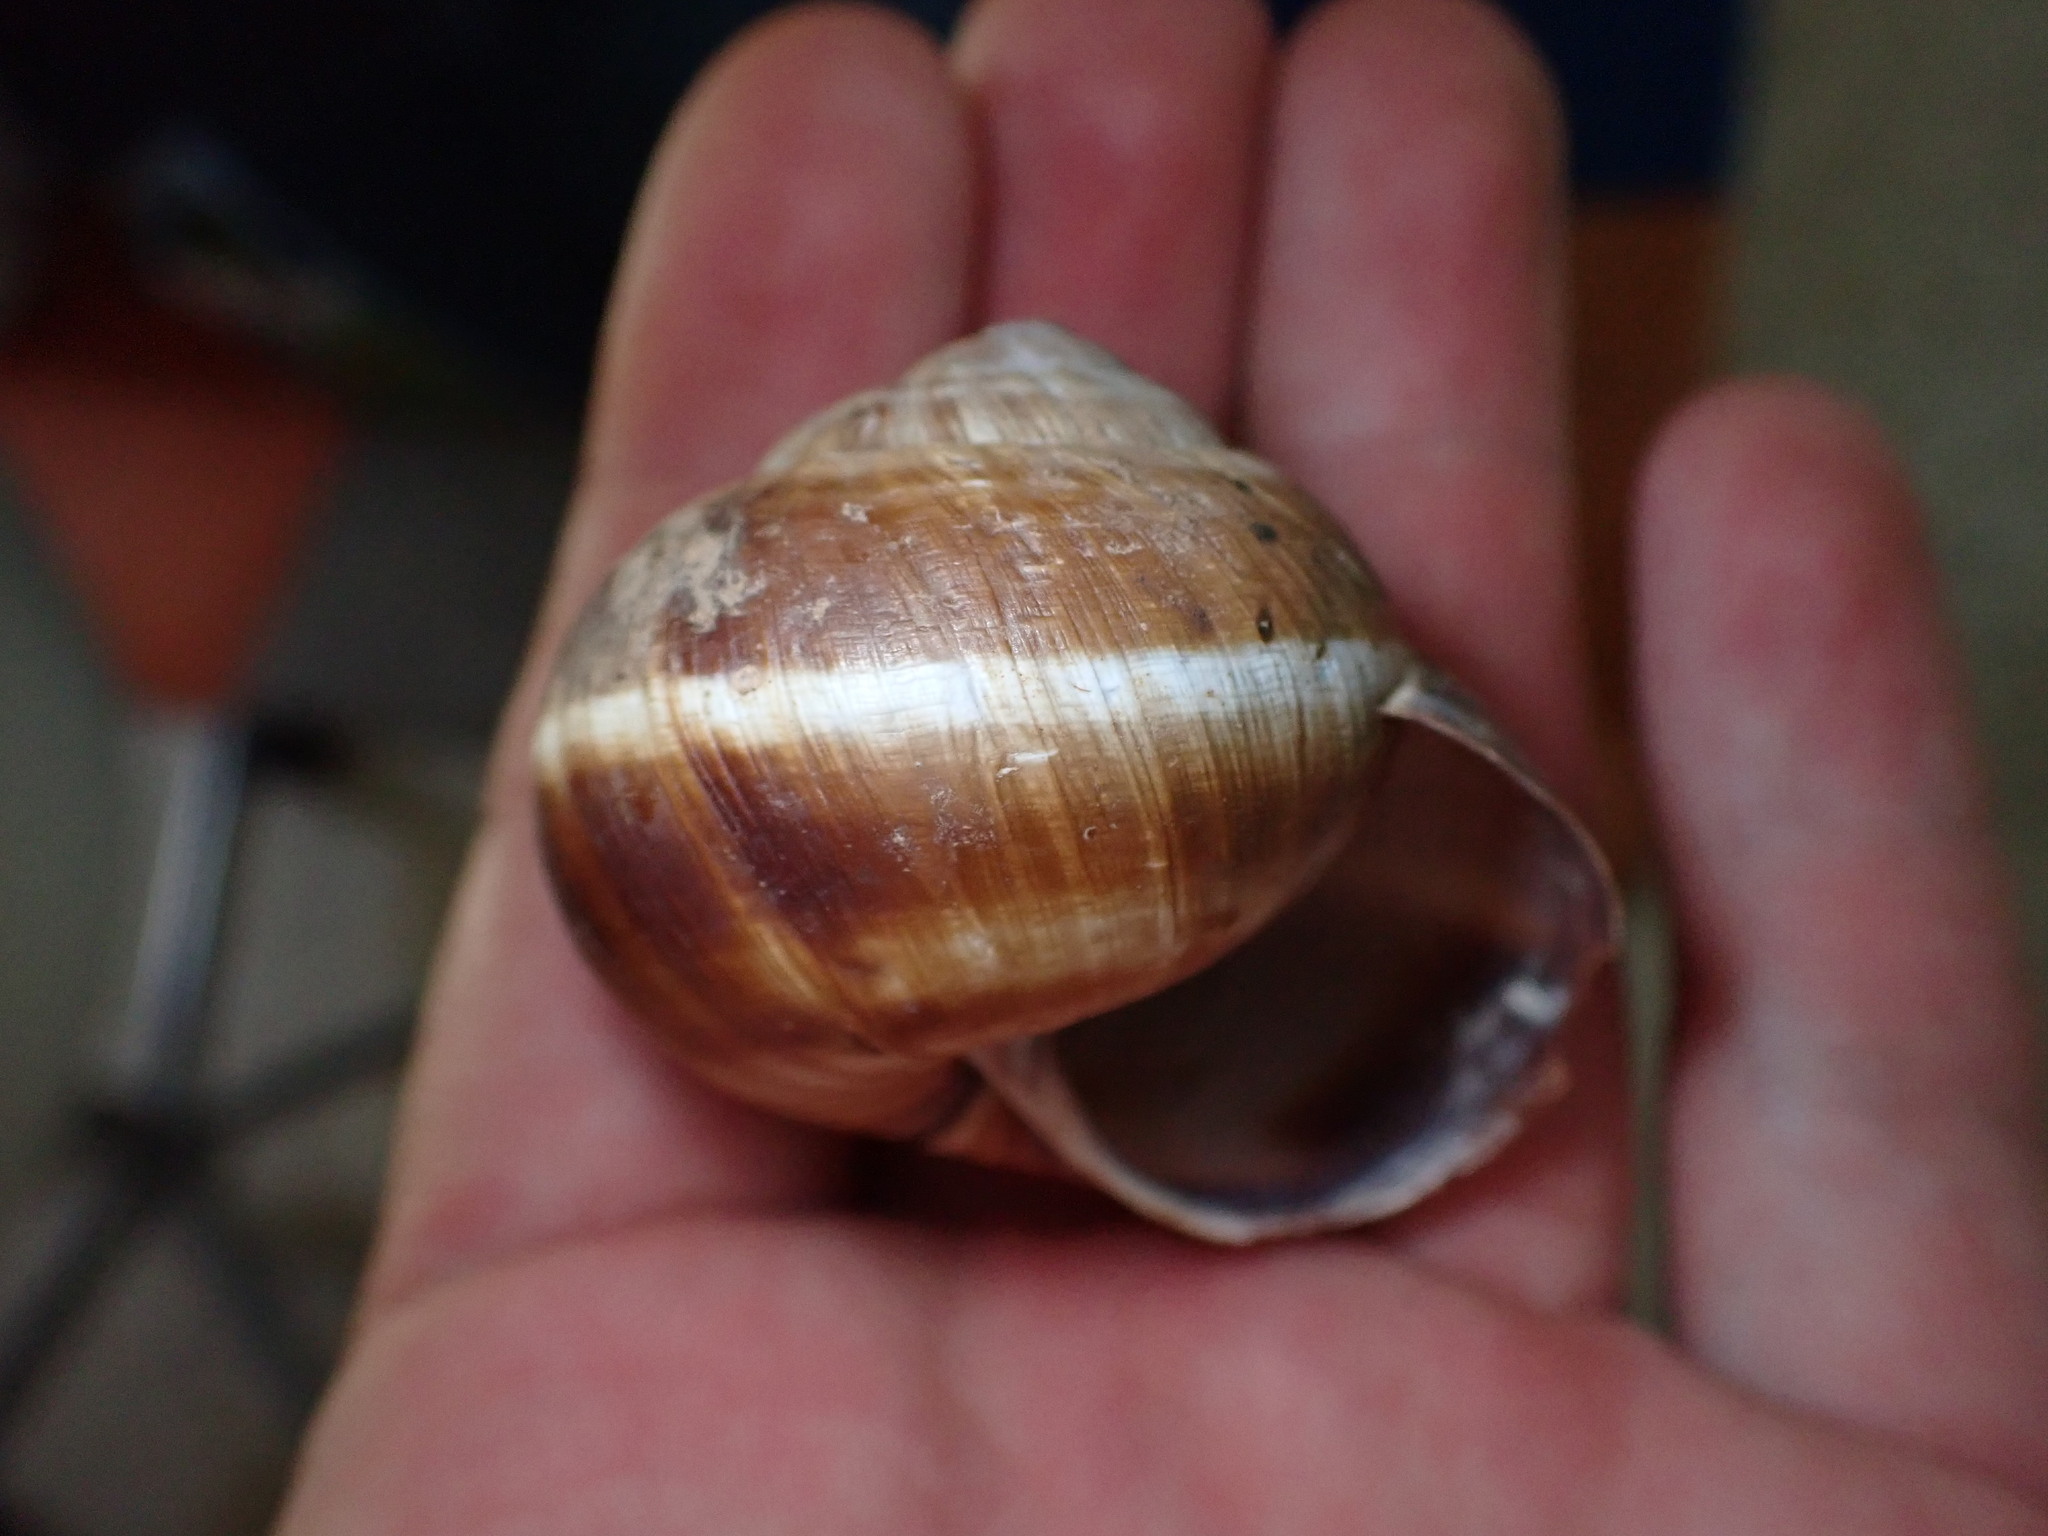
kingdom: Animalia
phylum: Mollusca
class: Gastropoda
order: Stylommatophora
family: Helicidae
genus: Helix
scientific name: Helix lucorum
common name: Turkish snail
